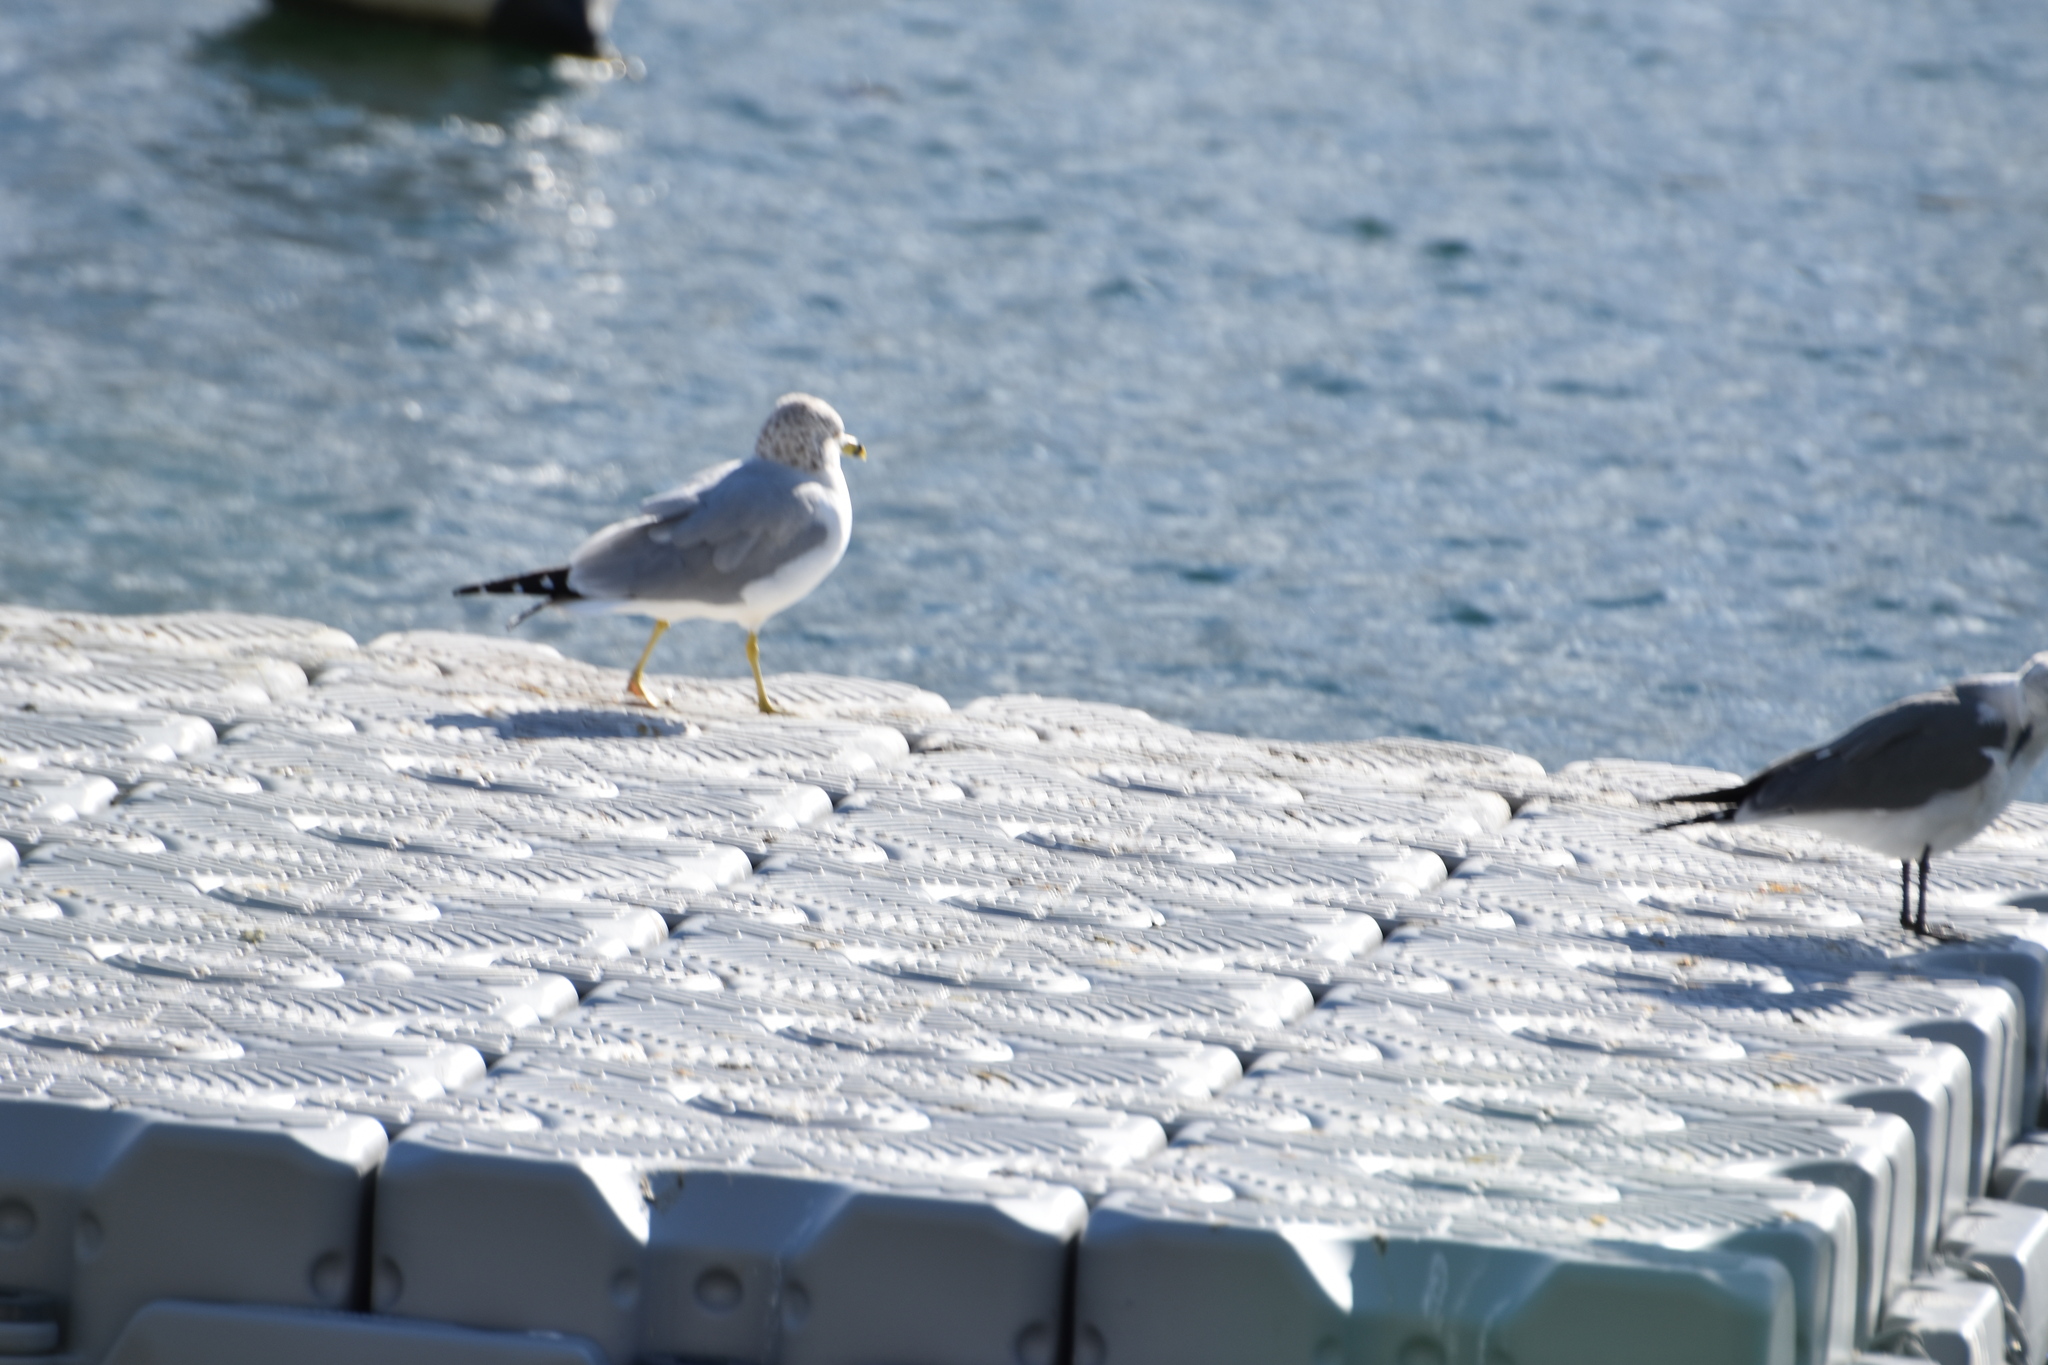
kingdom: Animalia
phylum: Chordata
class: Aves
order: Charadriiformes
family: Laridae
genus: Larus
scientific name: Larus delawarensis
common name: Ring-billed gull
